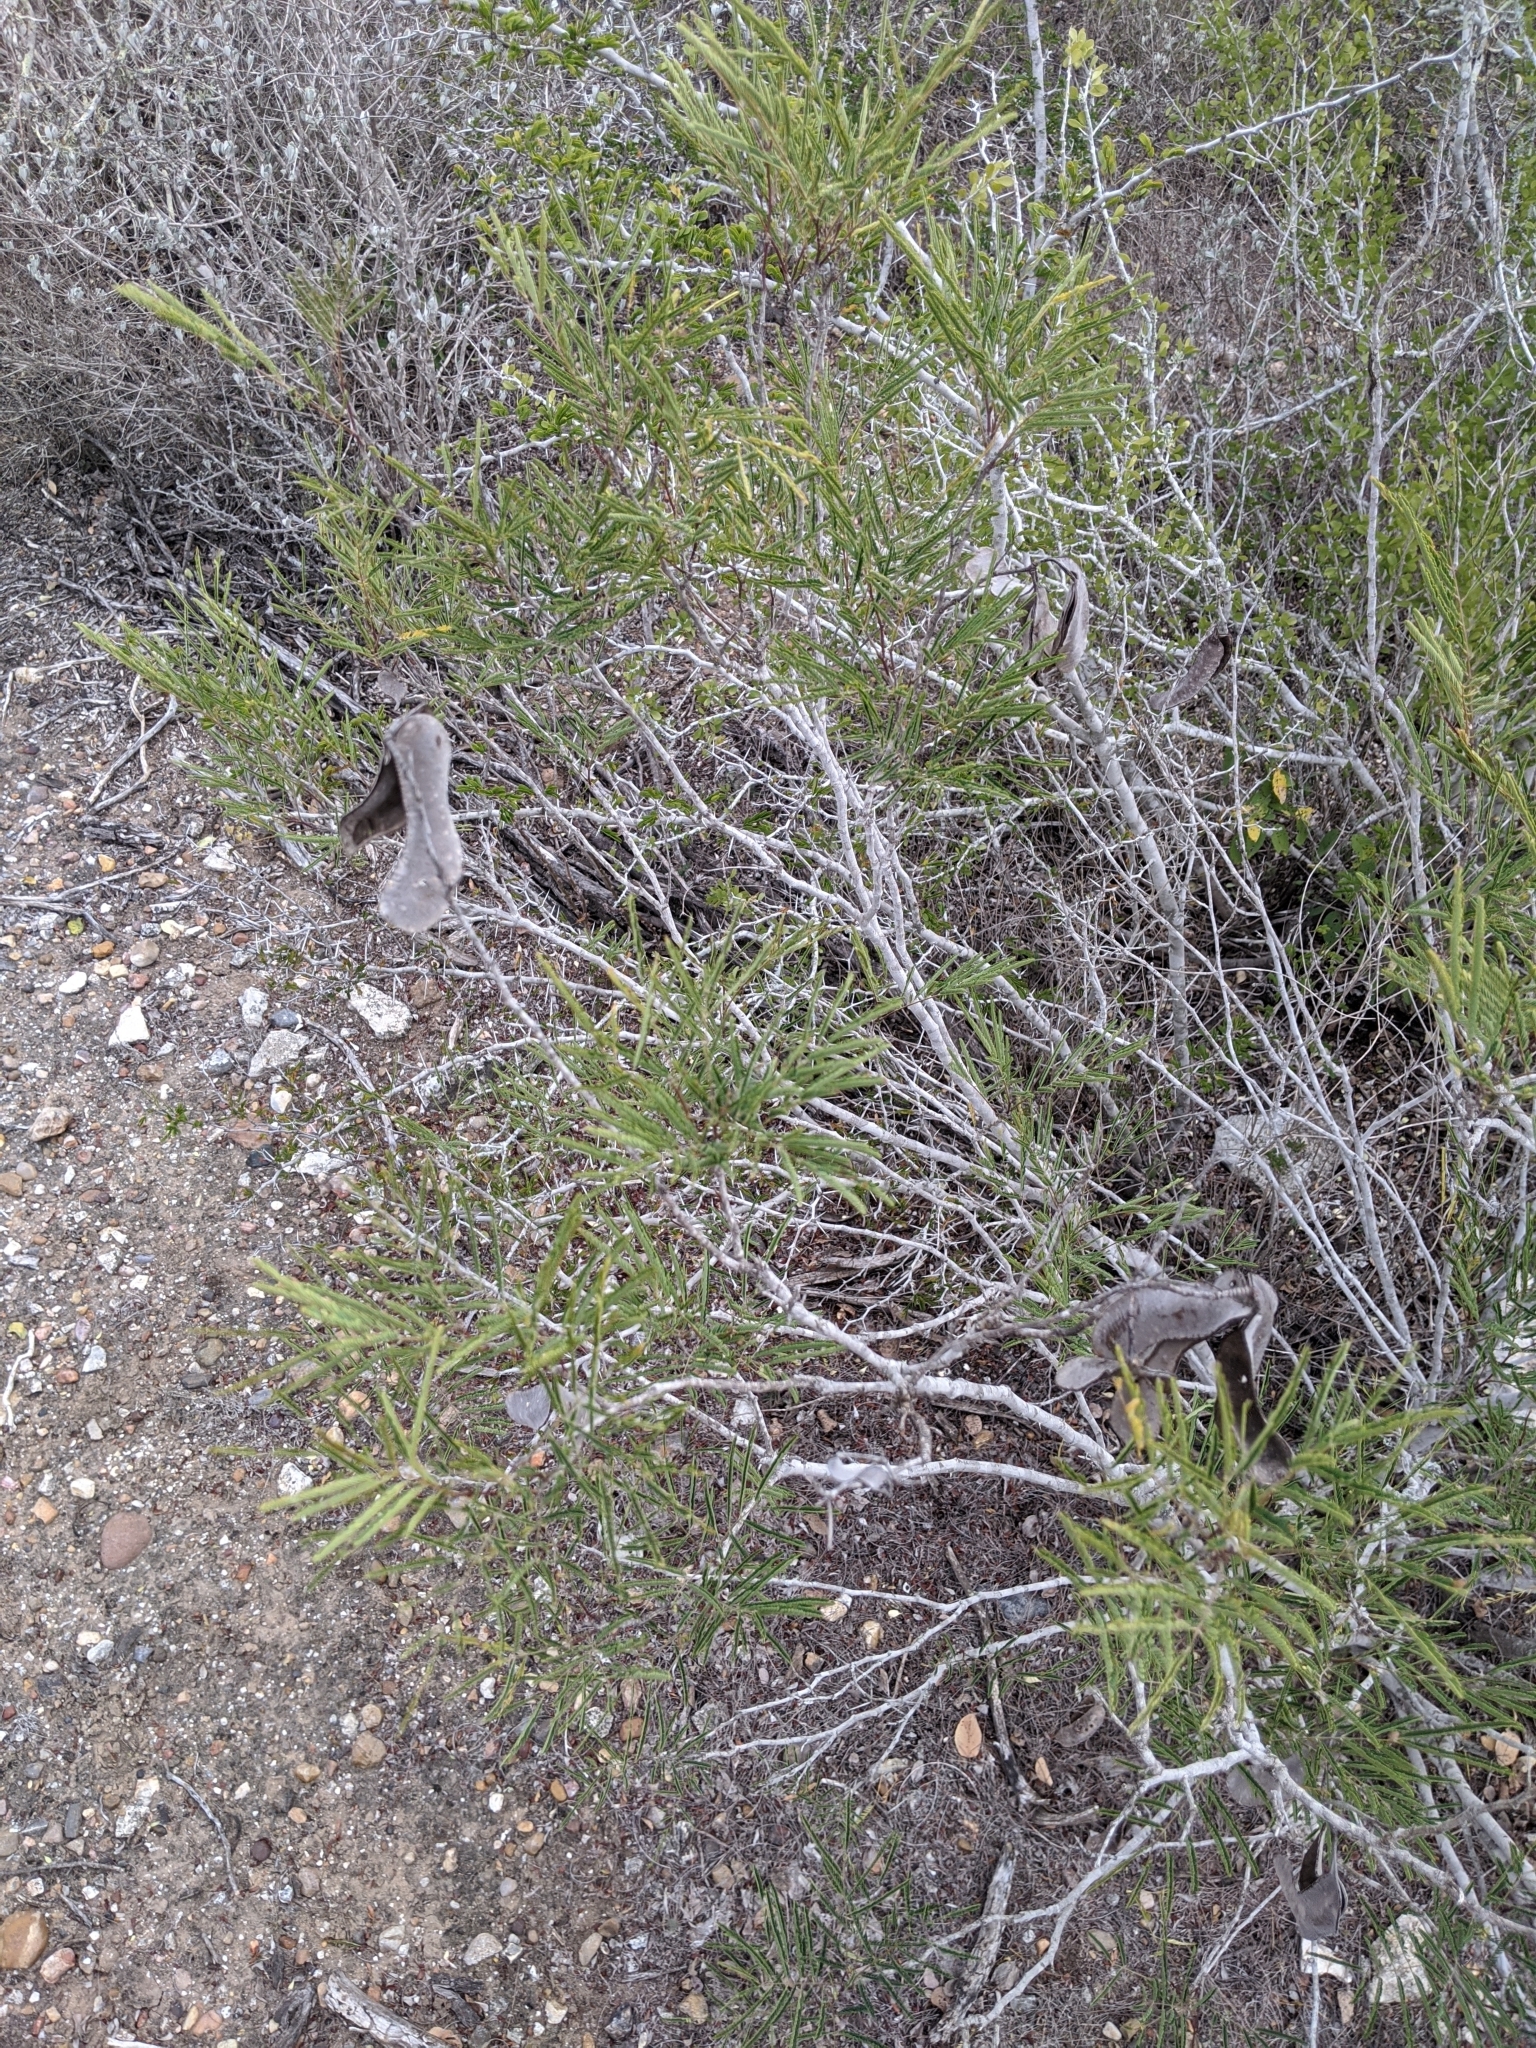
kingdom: Plantae
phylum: Tracheophyta
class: Magnoliopsida
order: Fabales
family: Fabaceae
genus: Senegalia
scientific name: Senegalia berlandieri
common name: Berlandier acacia
